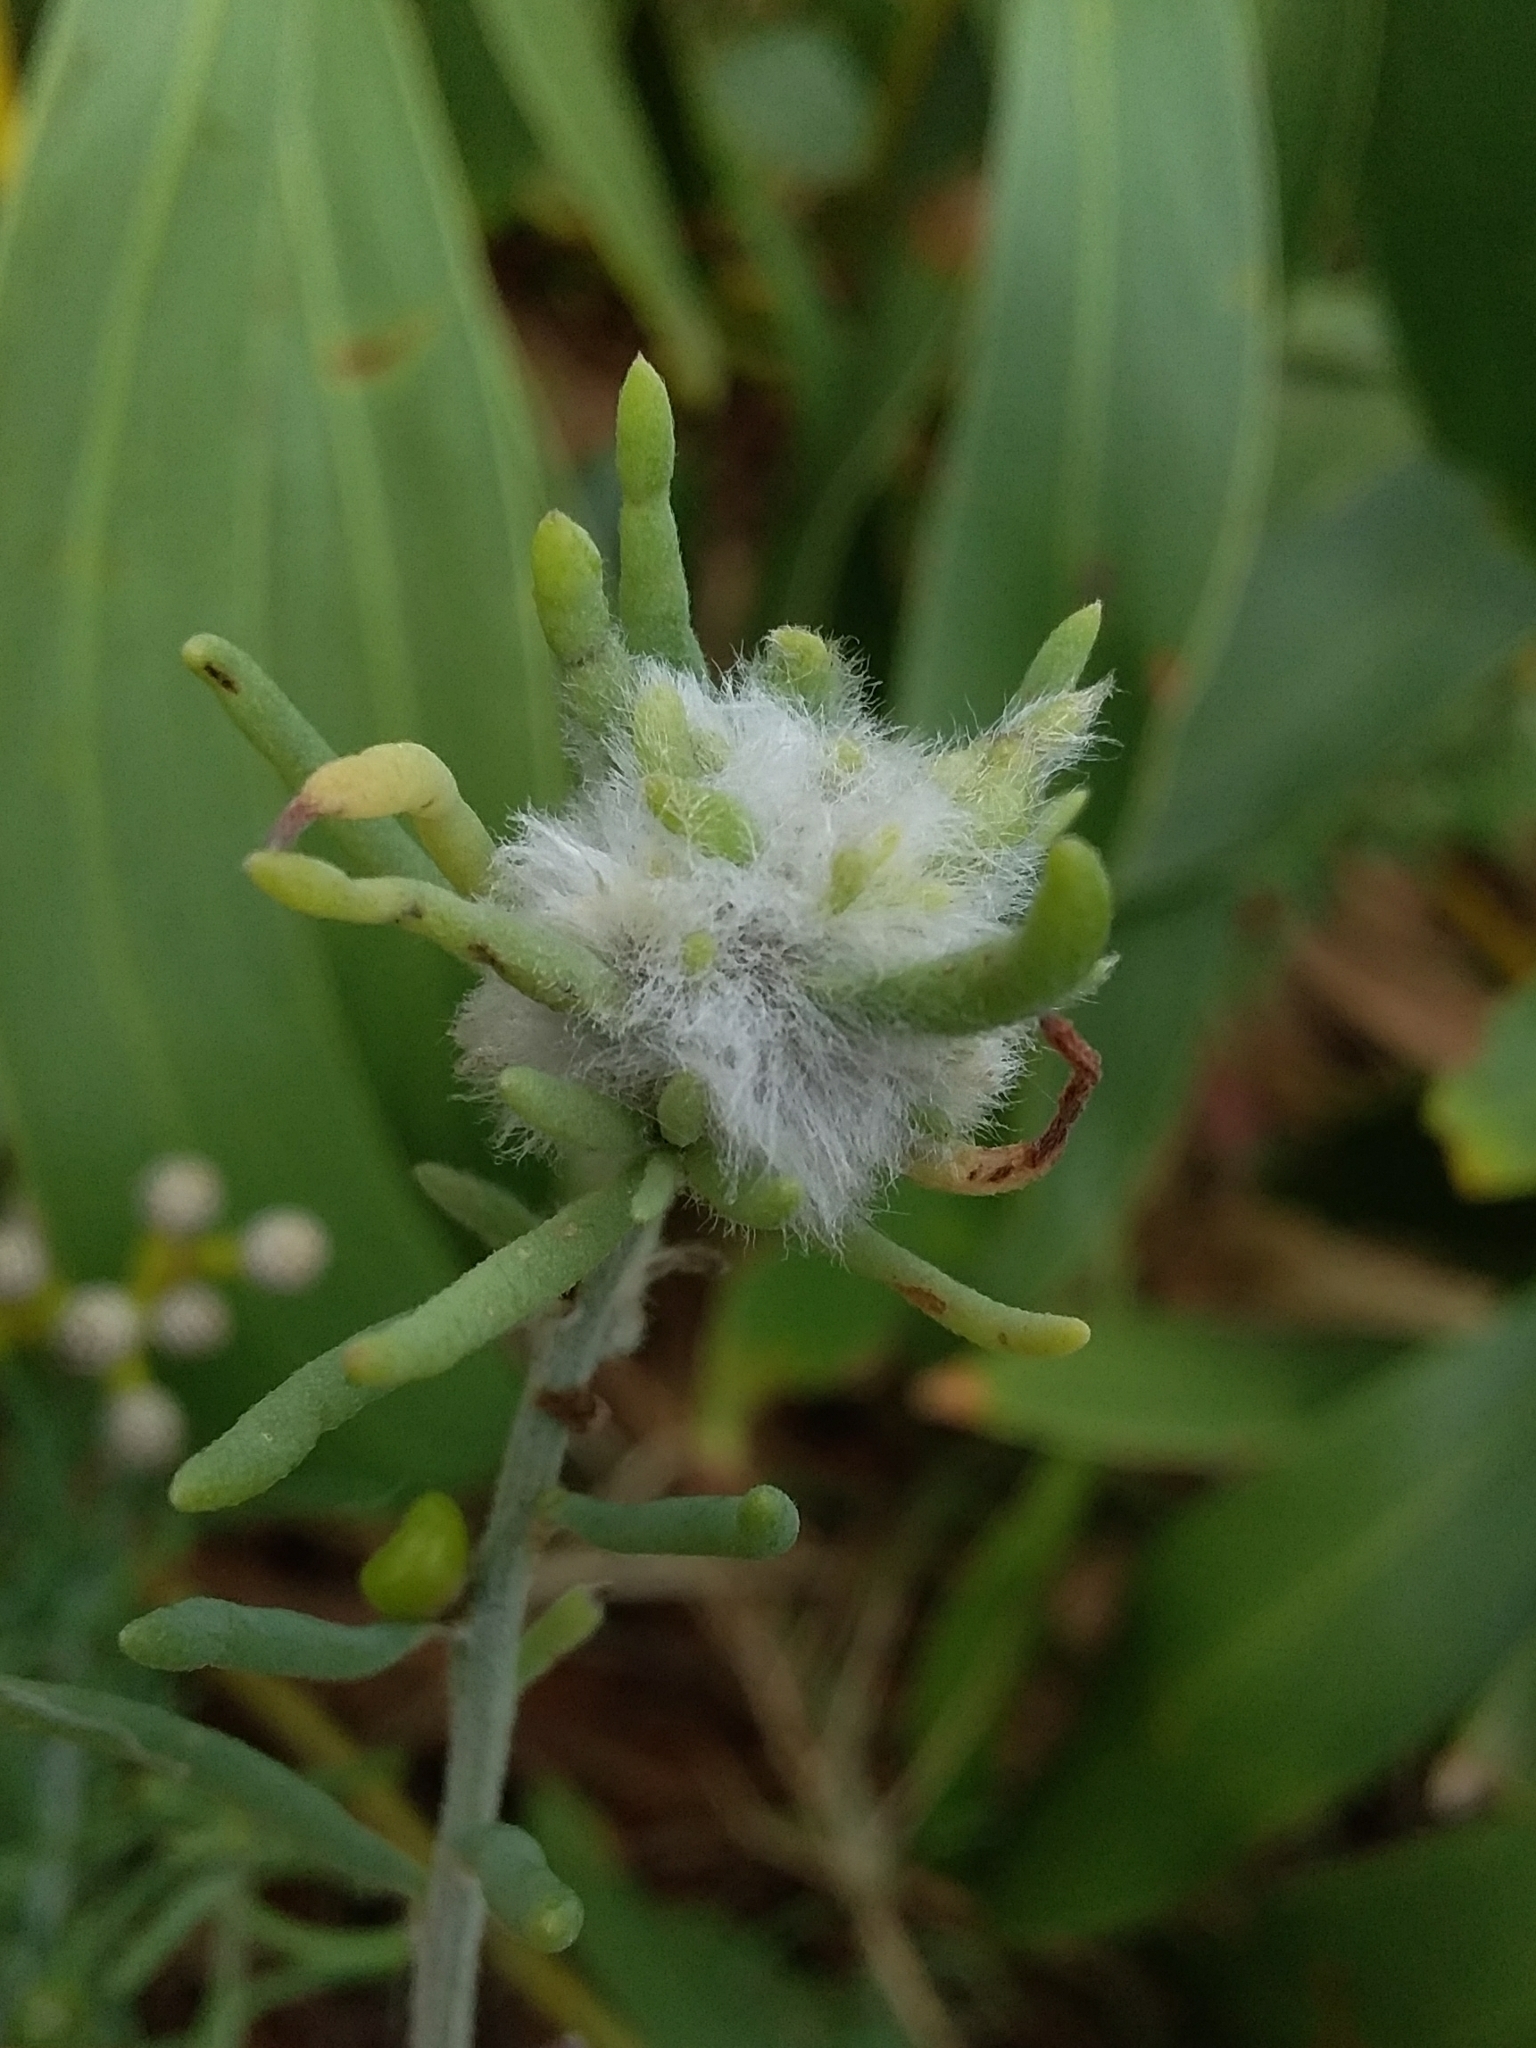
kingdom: Animalia
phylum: Arthropoda
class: Insecta
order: Diptera
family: Cecidomyiidae
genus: Asphondylia
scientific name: Asphondylia tonsura
